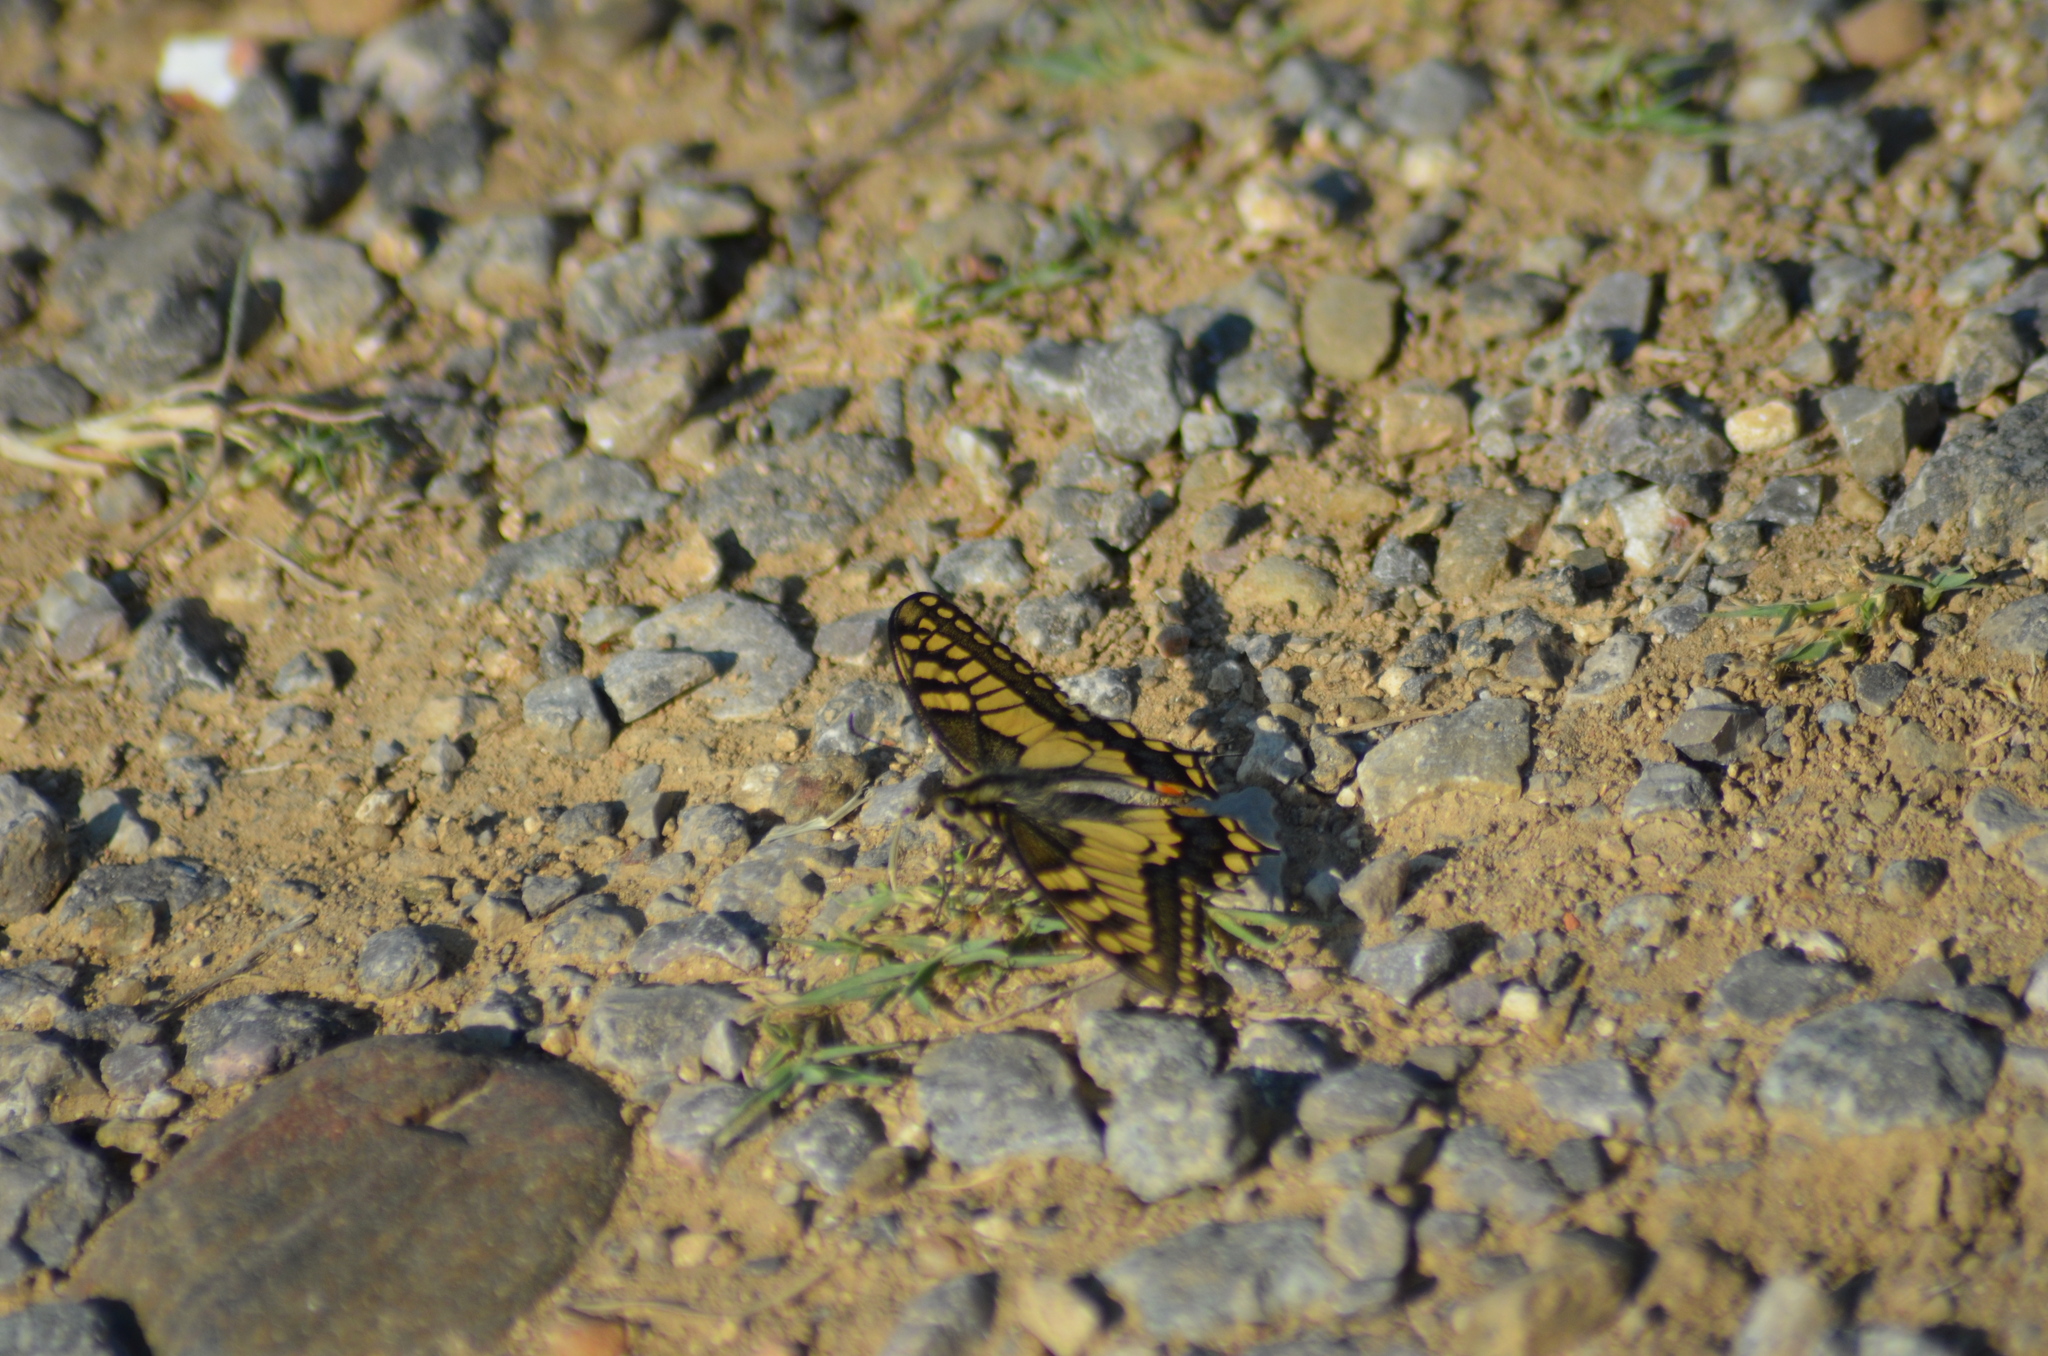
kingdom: Animalia
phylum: Arthropoda
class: Insecta
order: Lepidoptera
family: Papilionidae
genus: Papilio
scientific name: Papilio machaon
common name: Swallowtail
